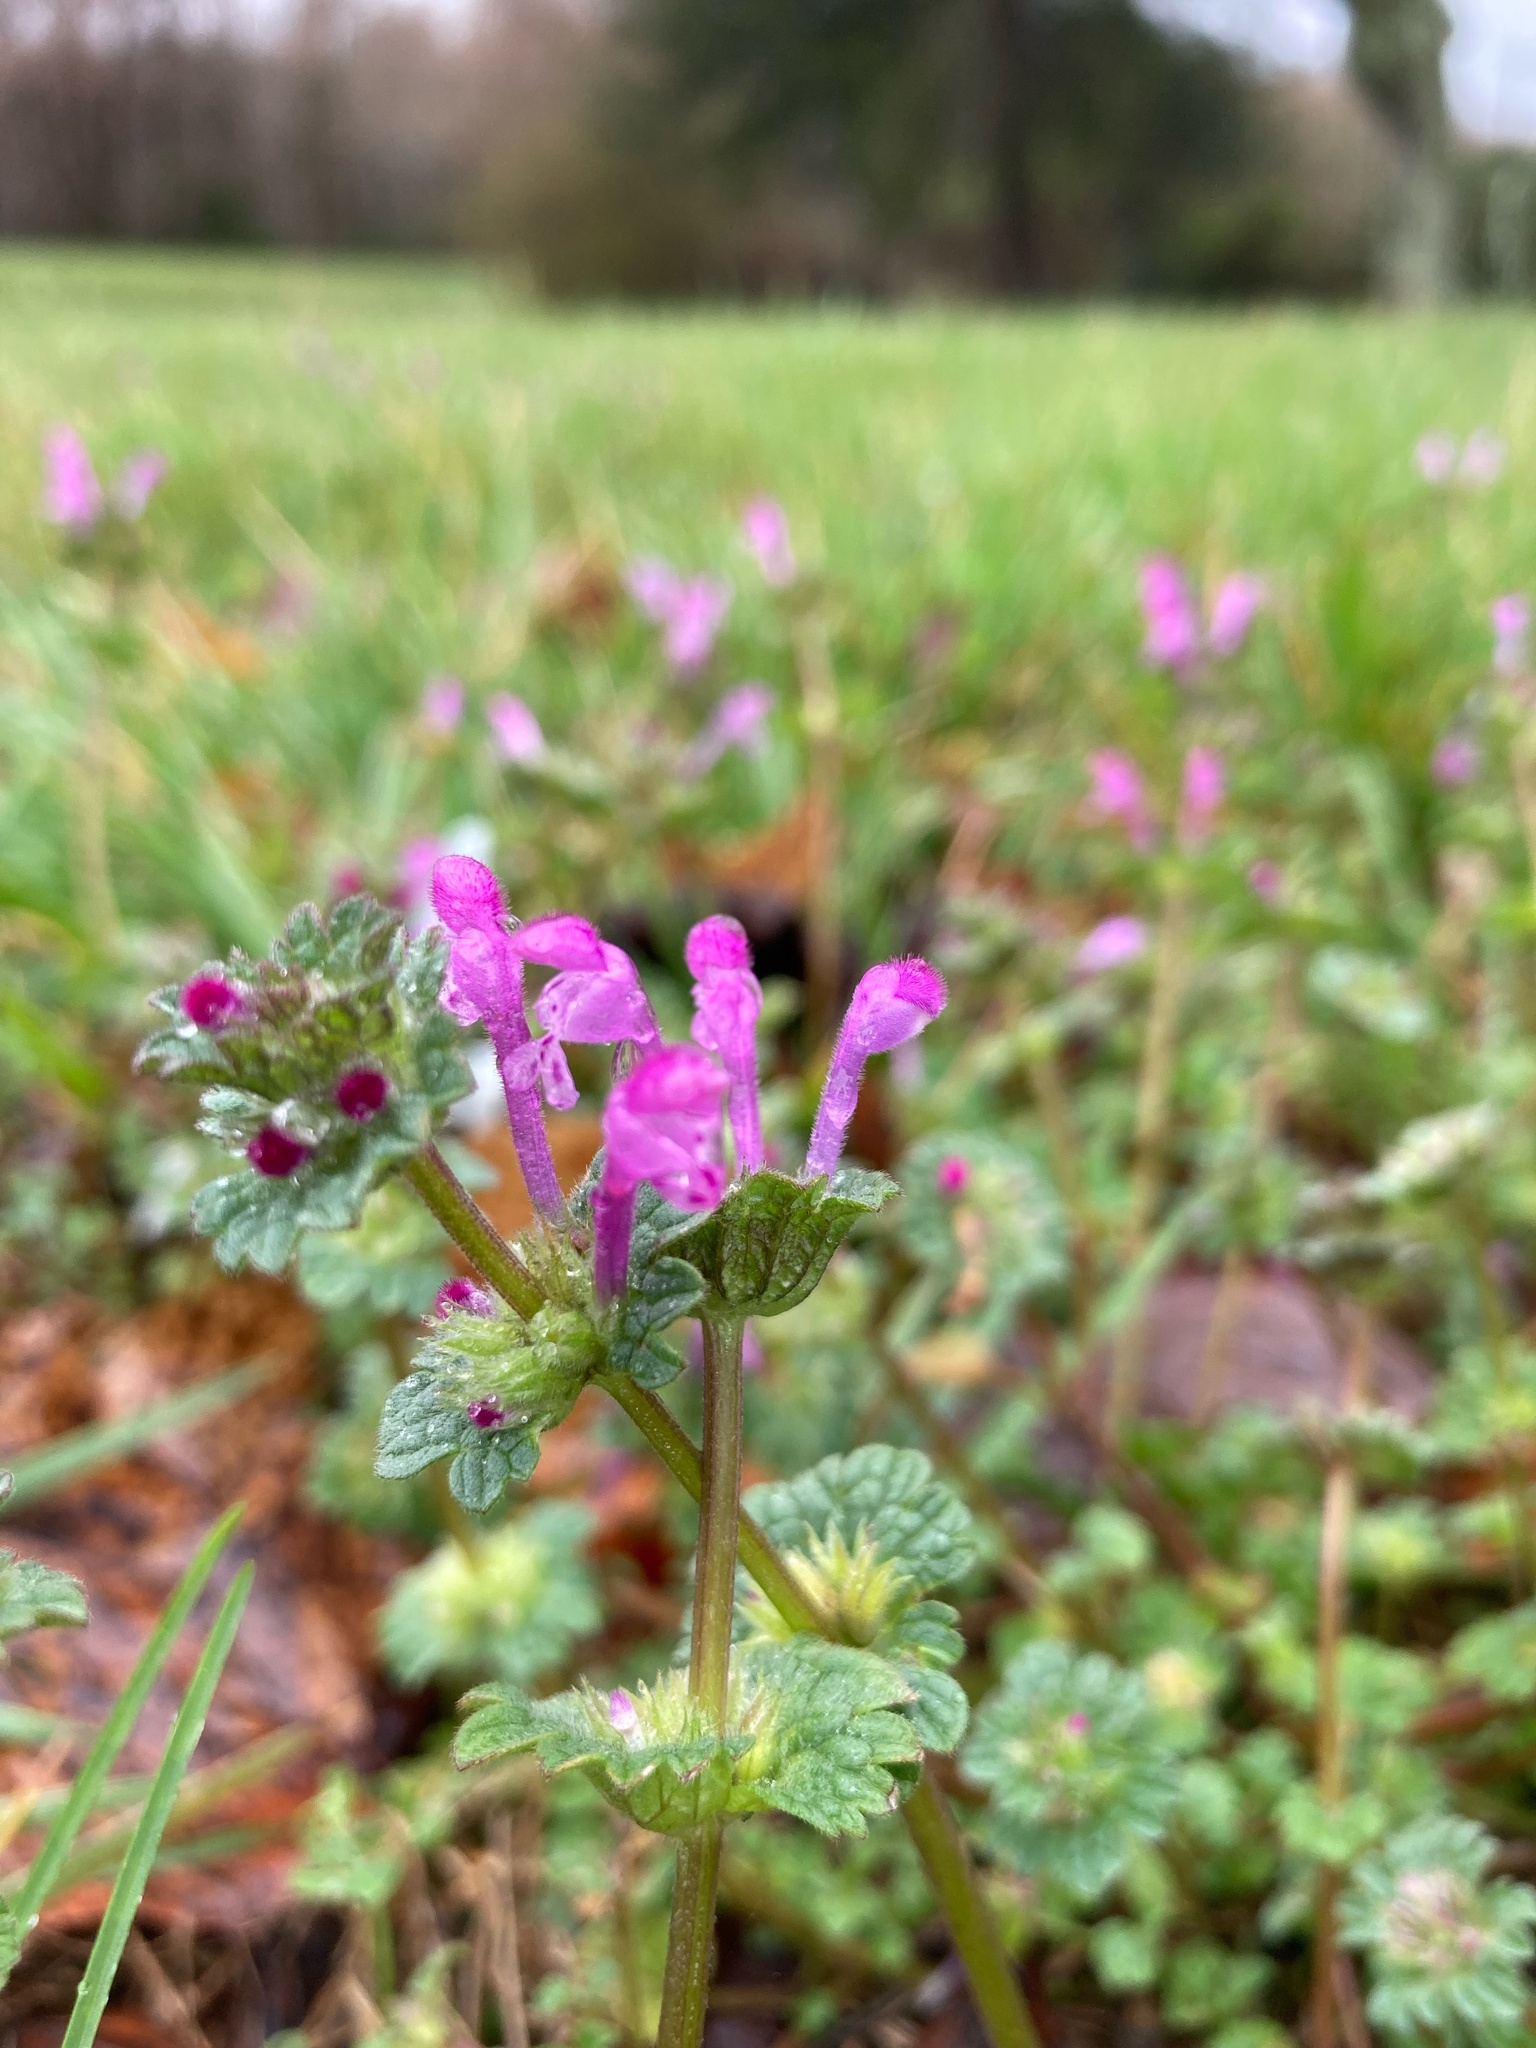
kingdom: Plantae
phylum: Tracheophyta
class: Magnoliopsida
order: Lamiales
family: Lamiaceae
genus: Lamium
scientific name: Lamium amplexicaule
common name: Henbit dead-nettle
